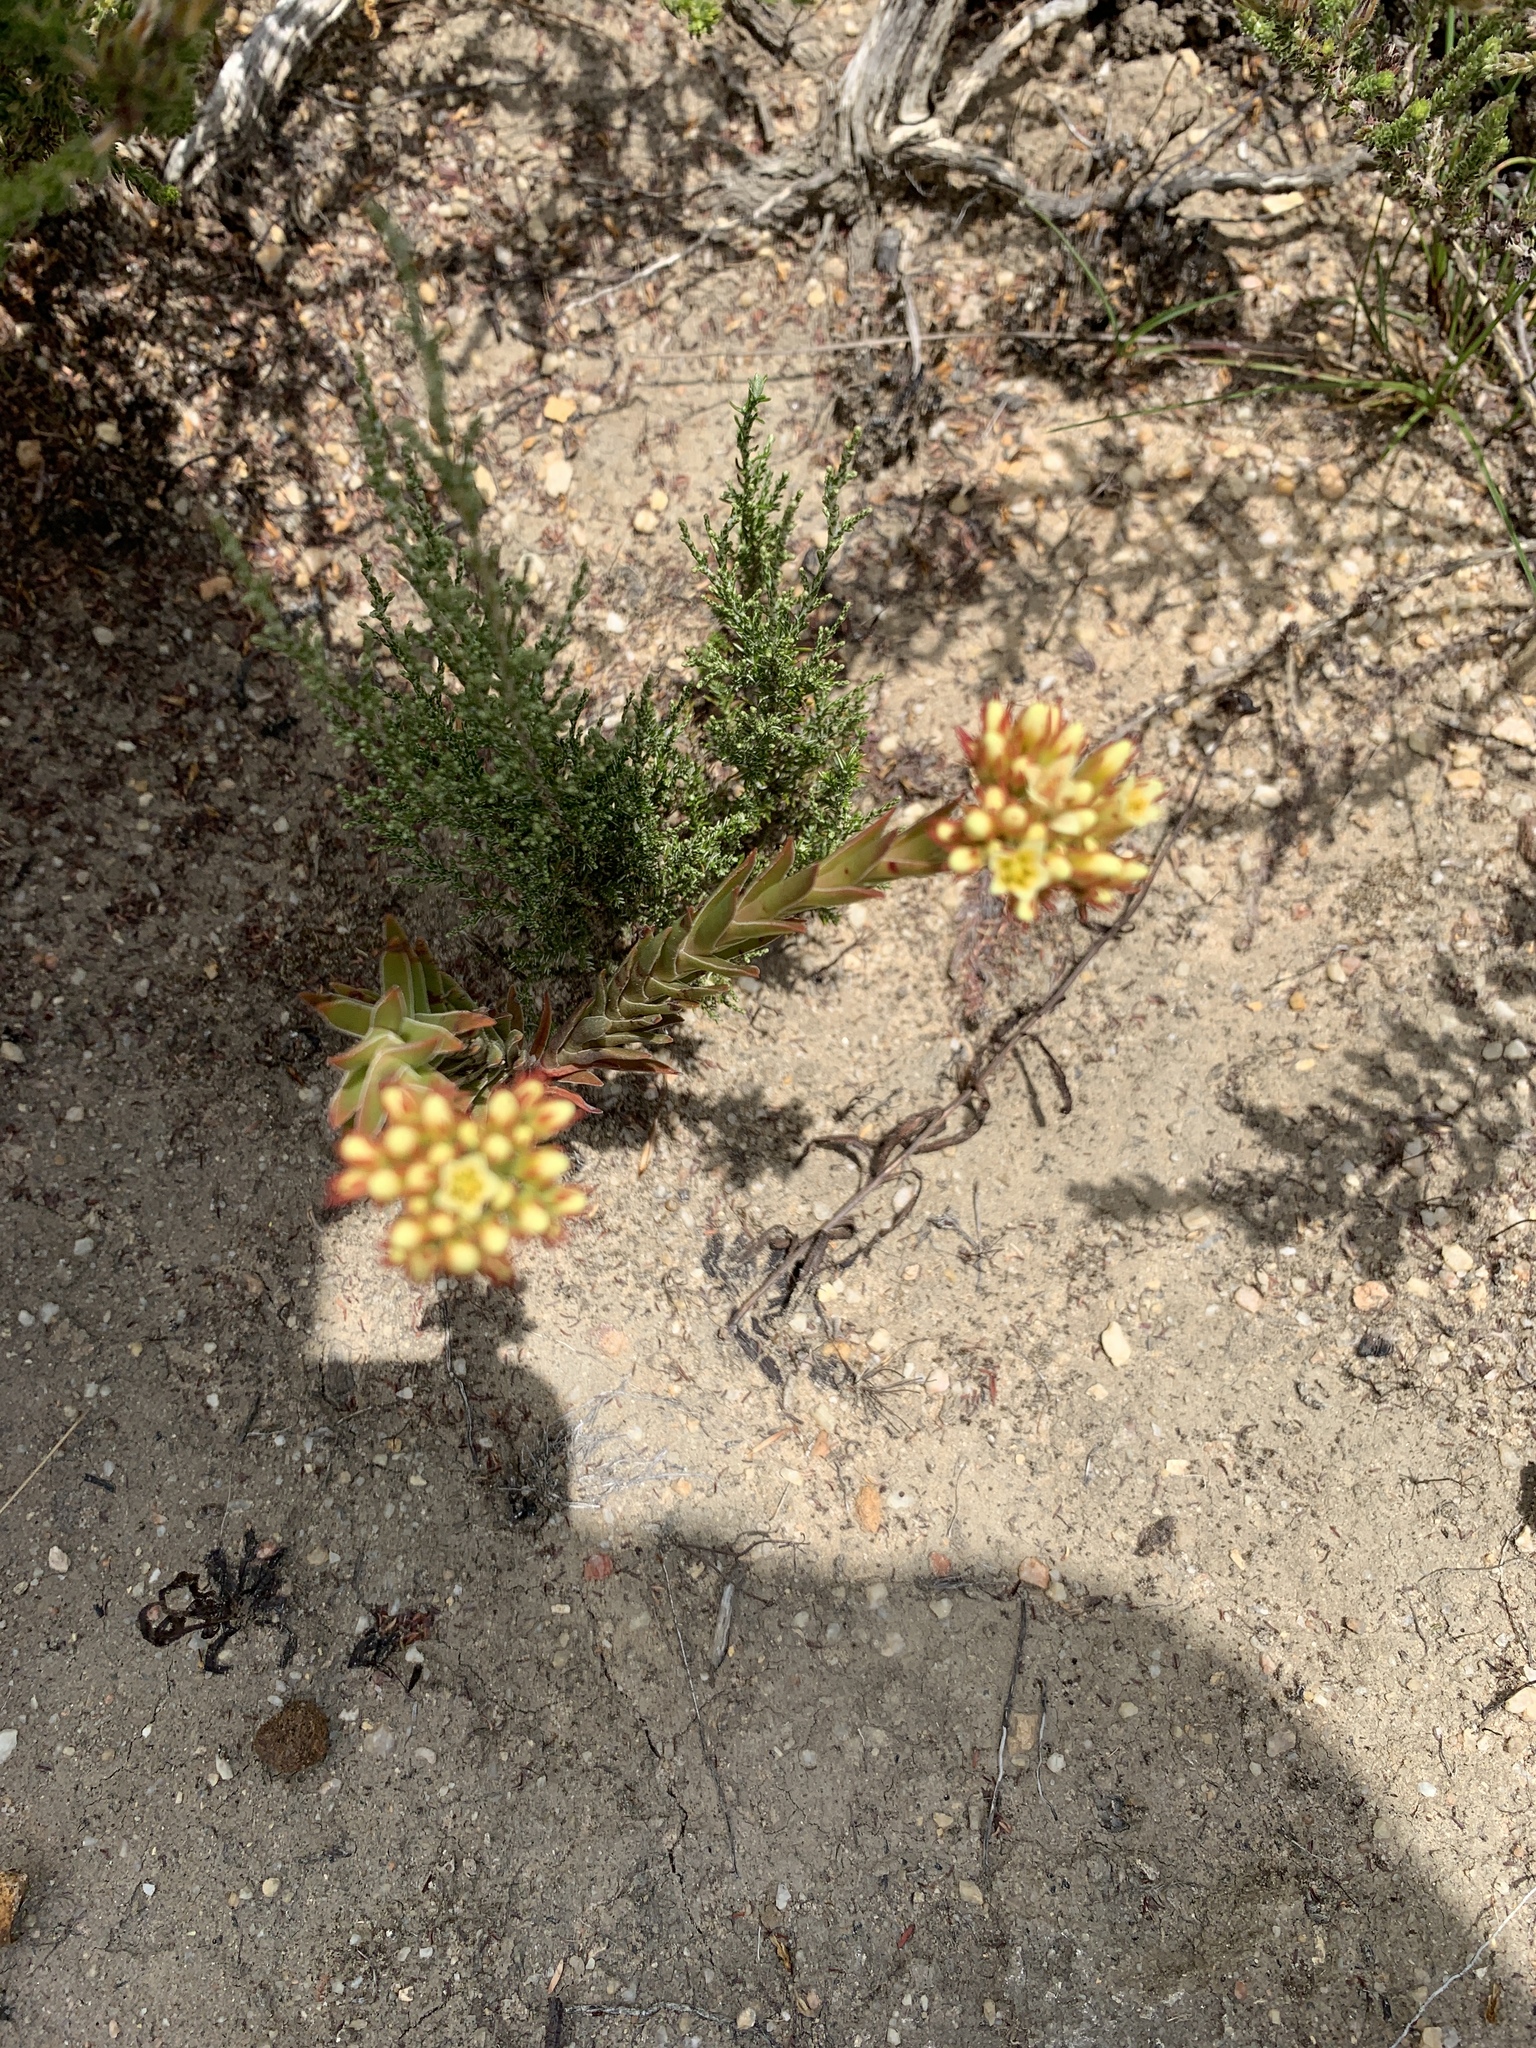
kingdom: Plantae
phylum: Tracheophyta
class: Magnoliopsida
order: Saxifragales
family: Crassulaceae
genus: Crassula
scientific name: Crassula flava
